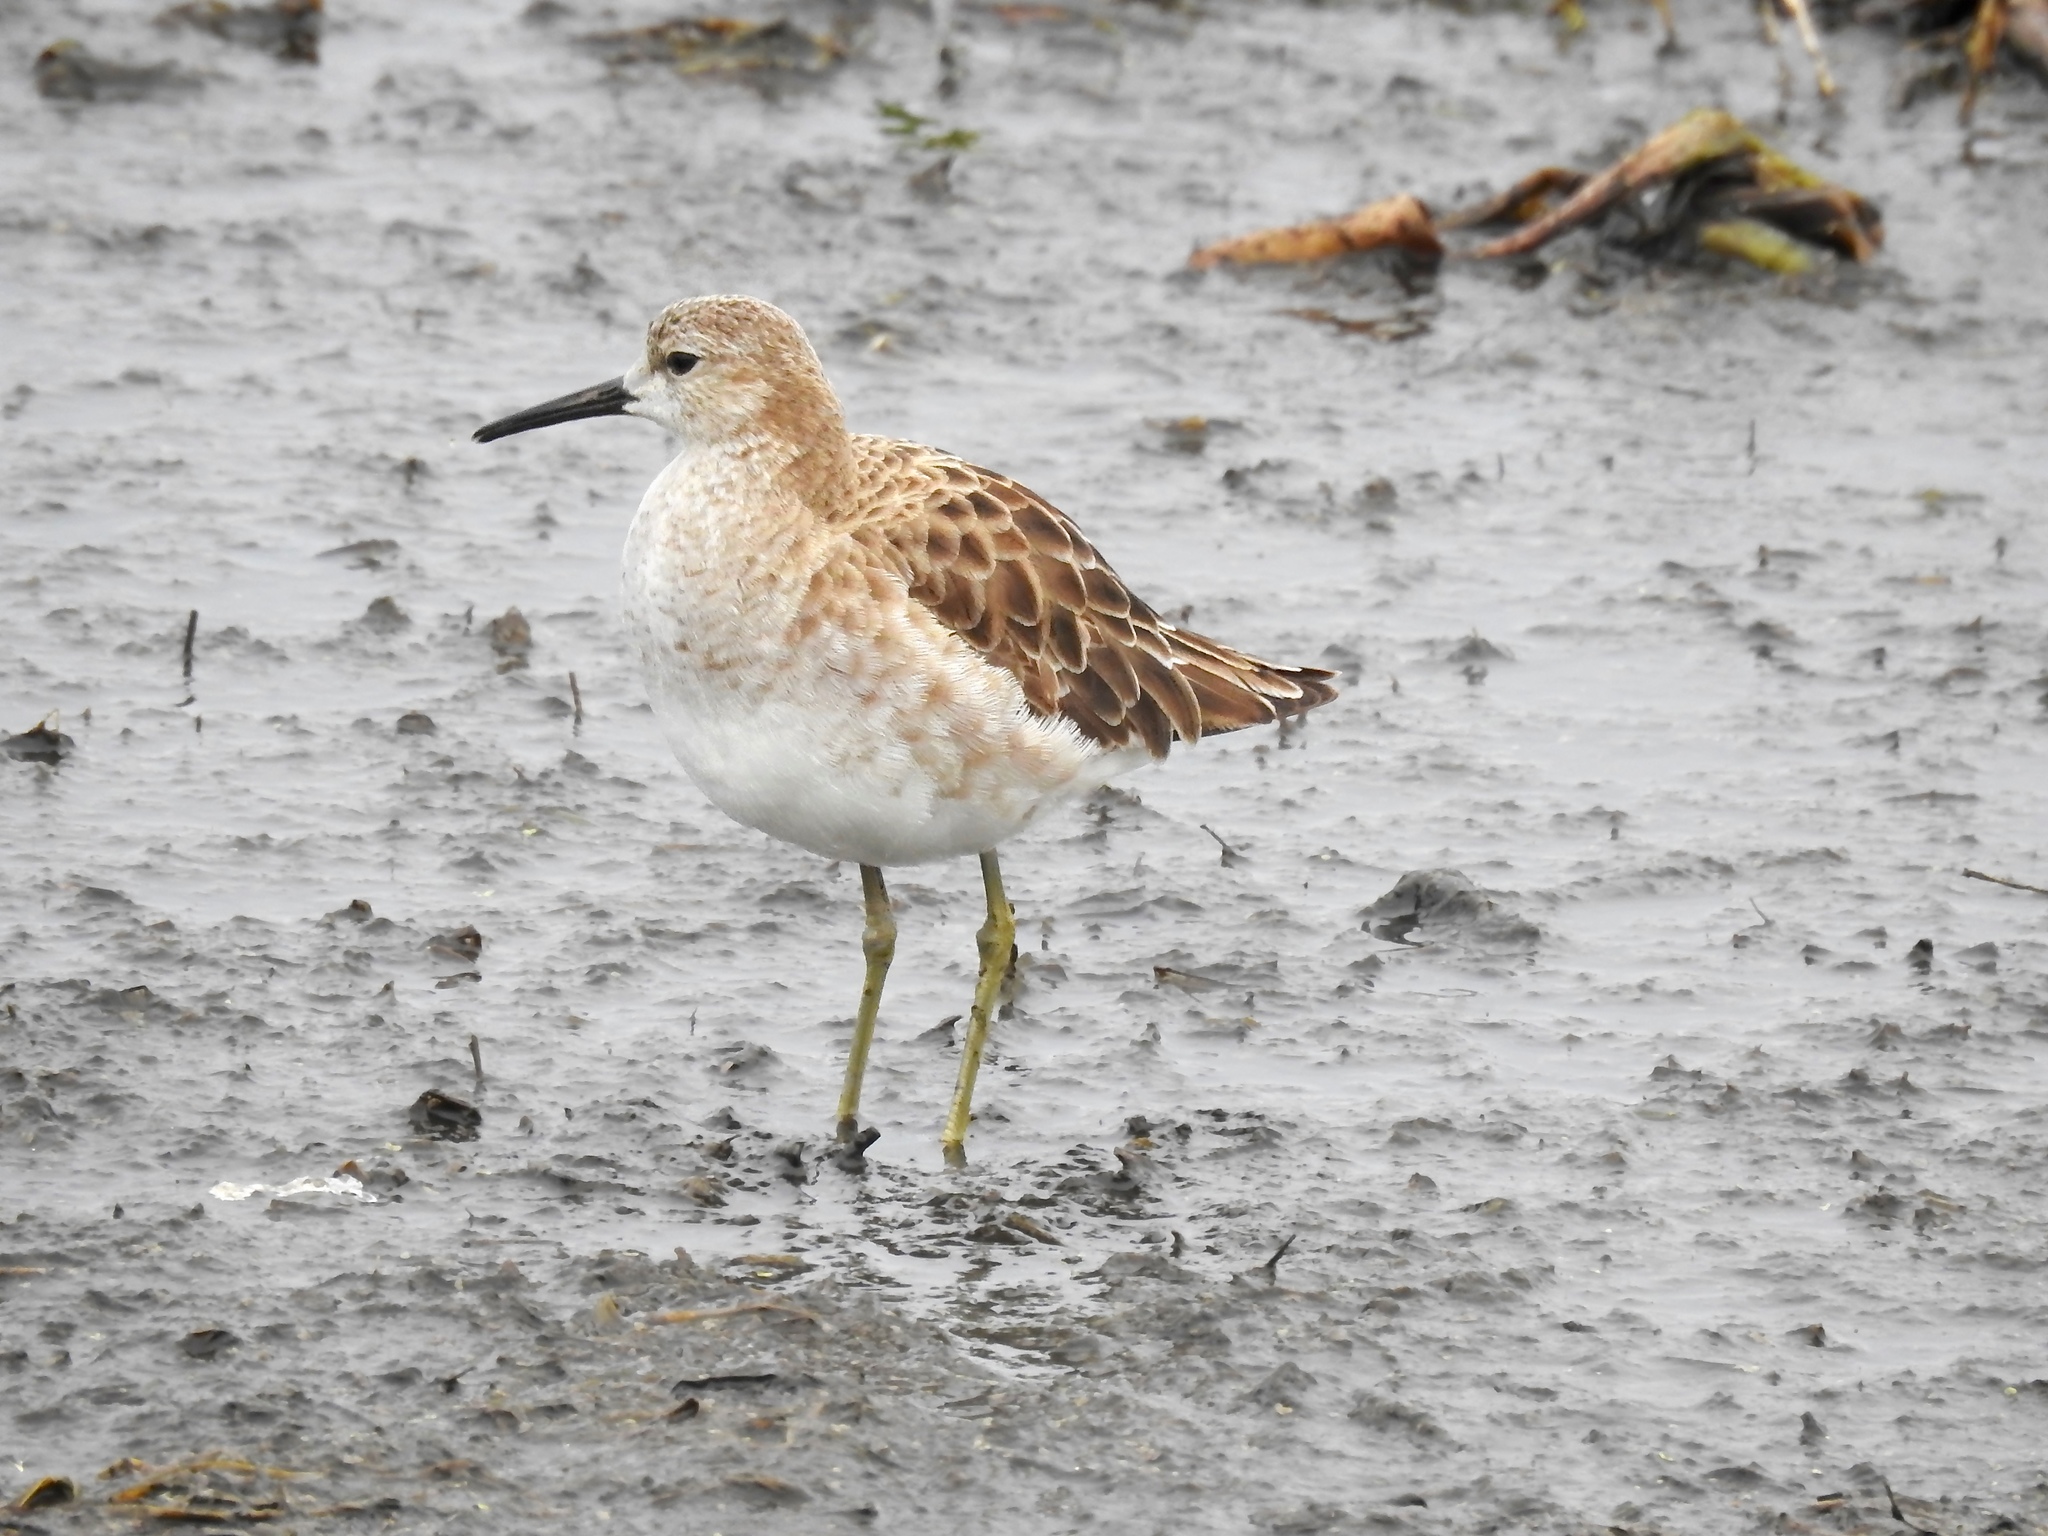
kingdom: Animalia
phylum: Chordata
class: Aves
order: Charadriiformes
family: Scolopacidae
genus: Calidris
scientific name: Calidris pugnax
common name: Ruff
